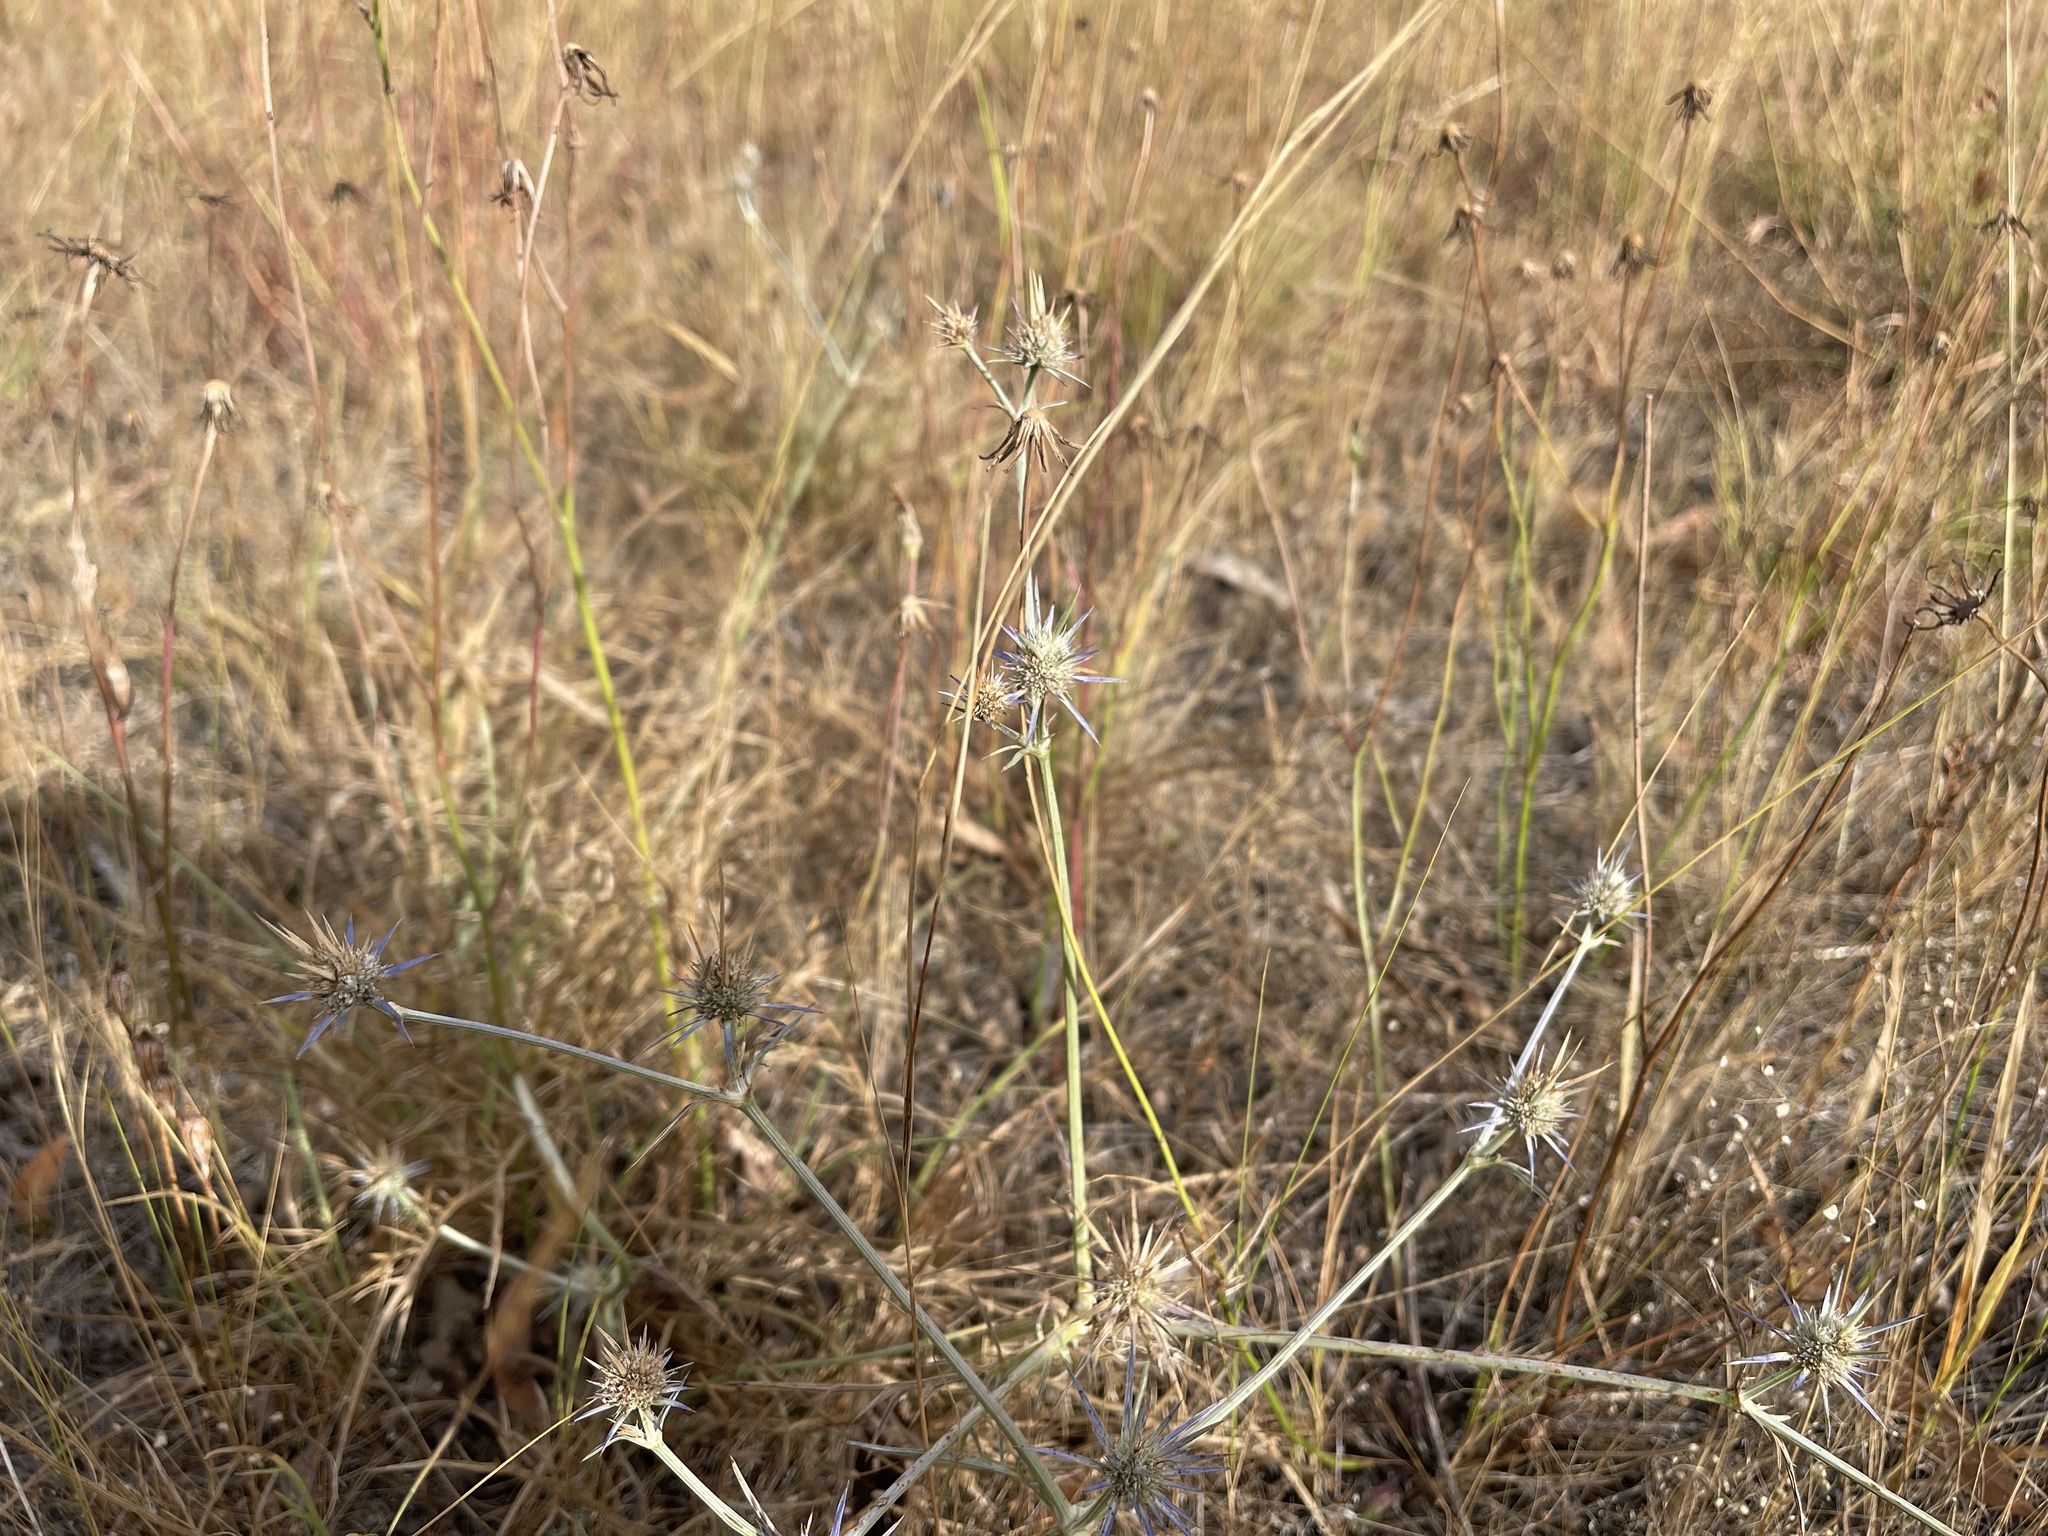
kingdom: Plantae
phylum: Tracheophyta
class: Magnoliopsida
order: Apiales
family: Apiaceae
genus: Eryngium
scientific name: Eryngium ovinum
